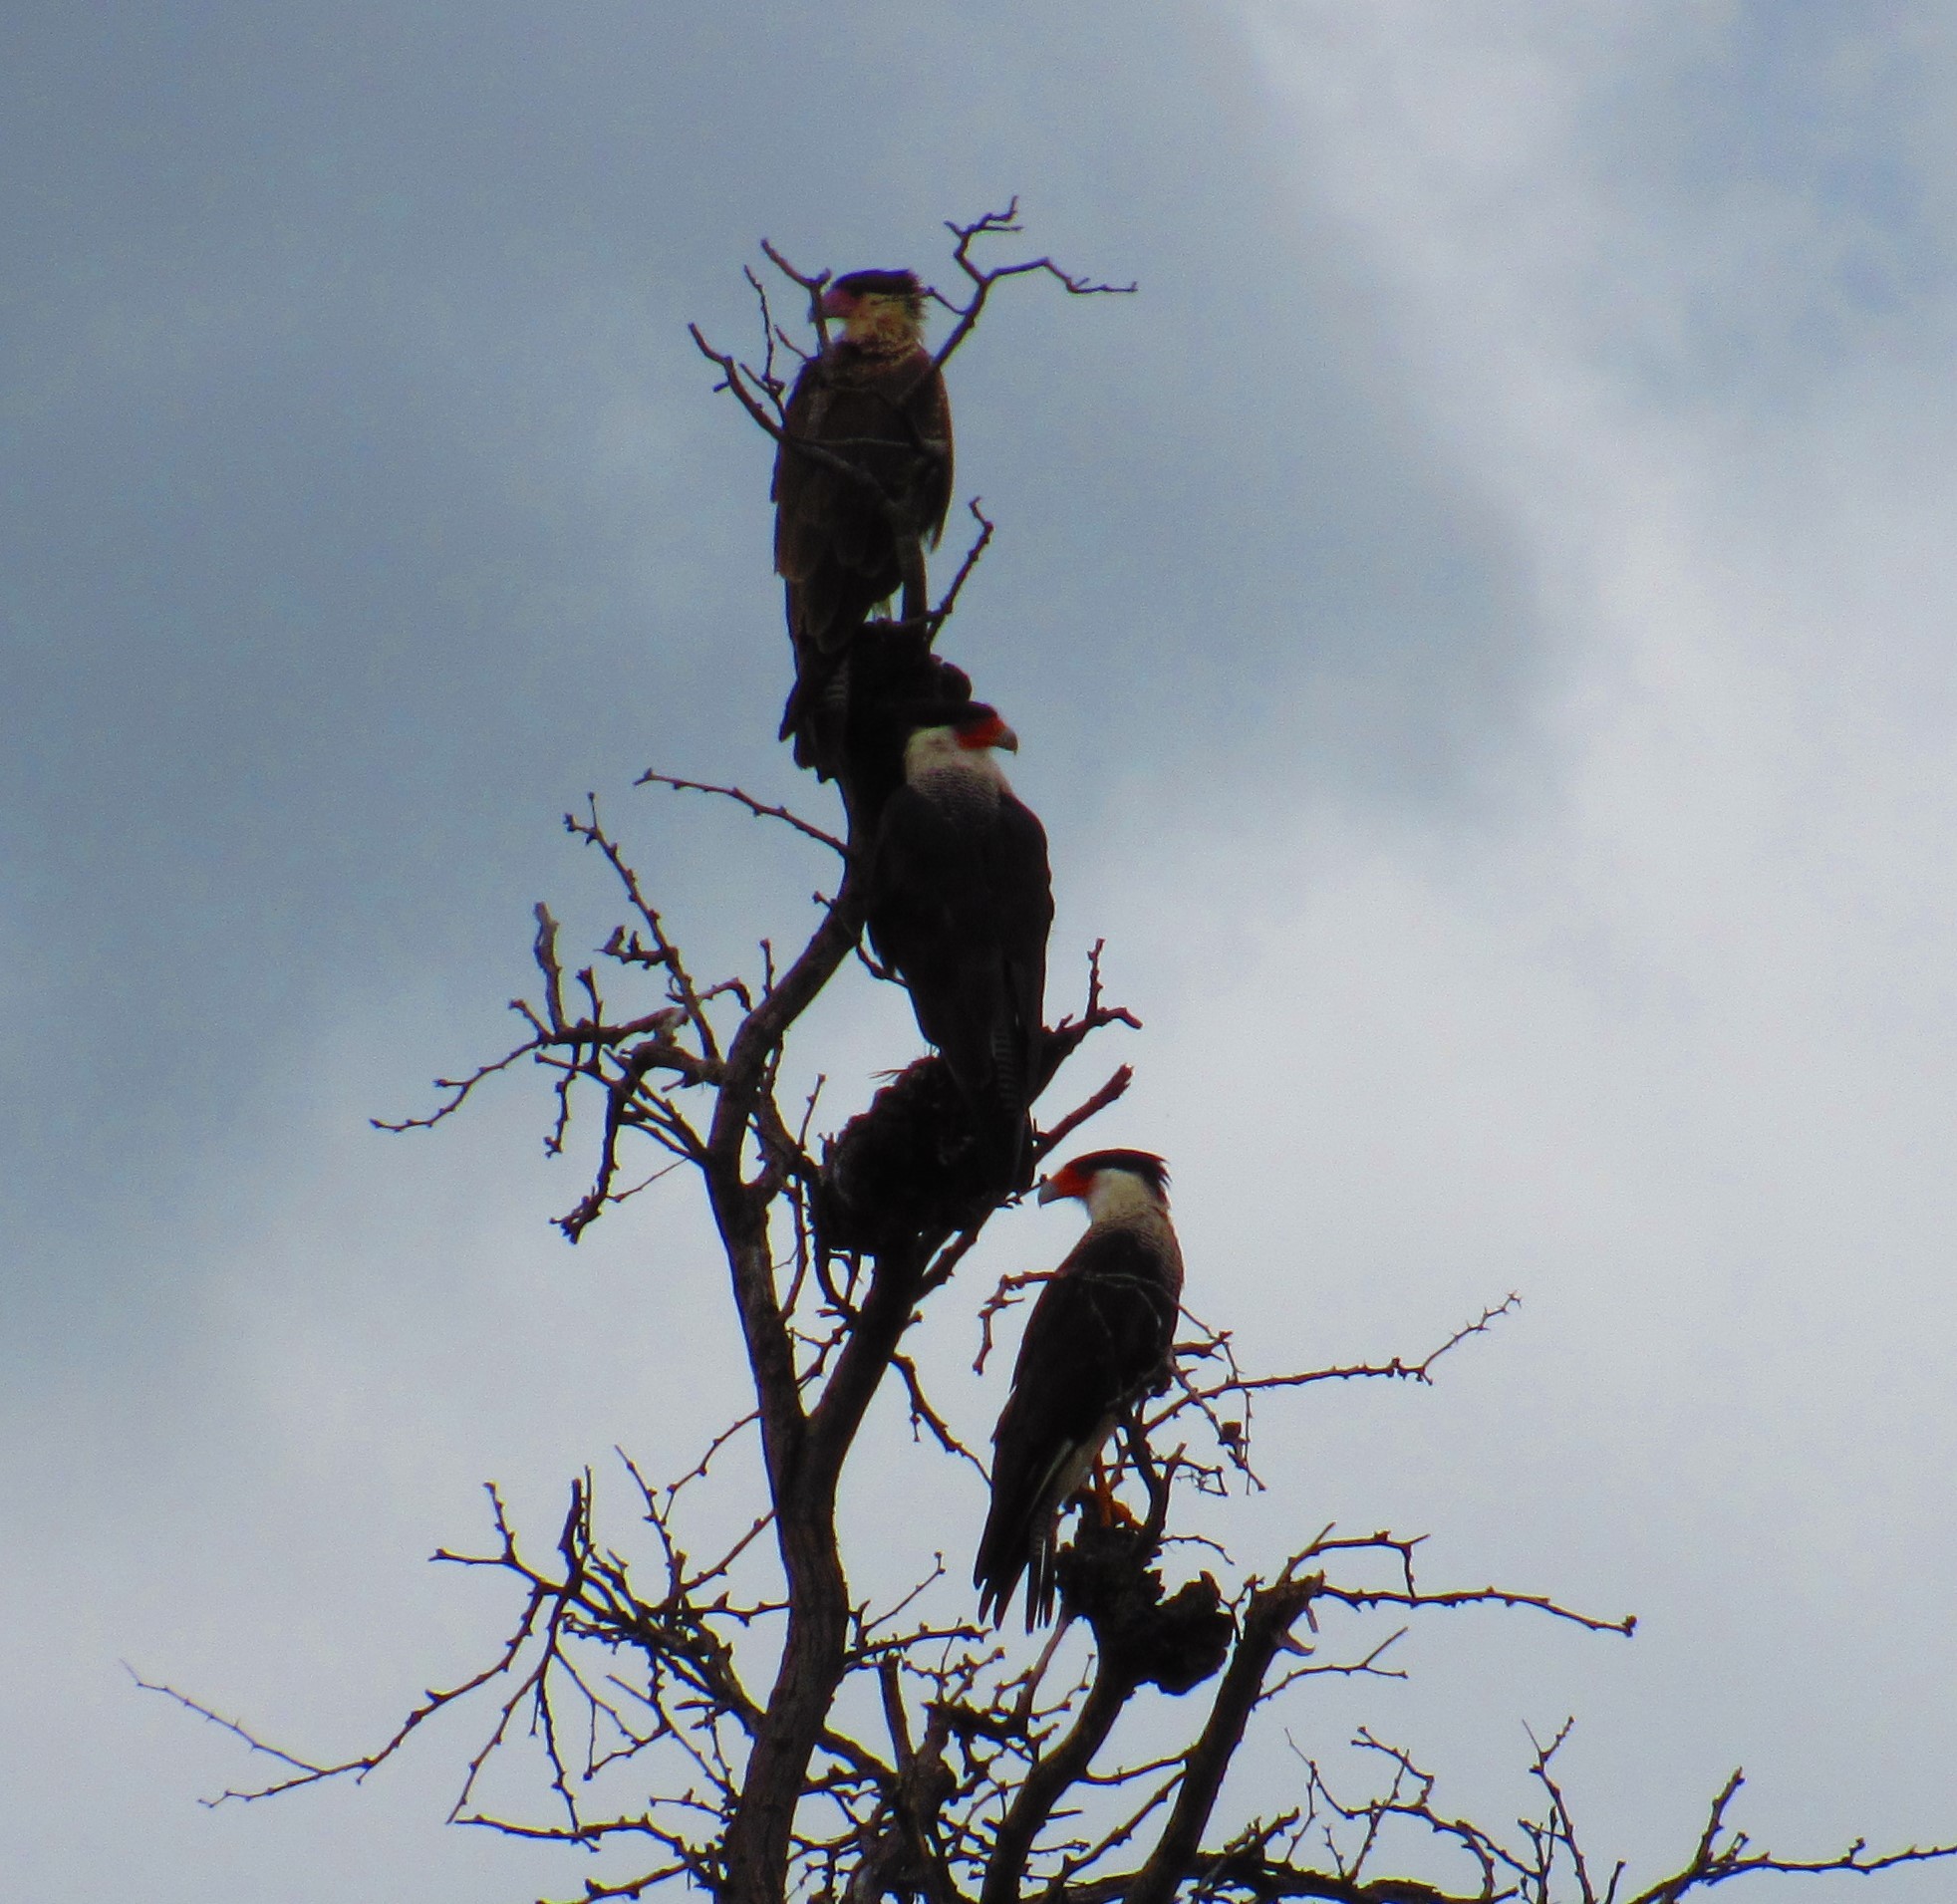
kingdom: Animalia
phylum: Chordata
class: Aves
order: Falconiformes
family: Falconidae
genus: Caracara
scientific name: Caracara plancus
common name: Southern caracara
